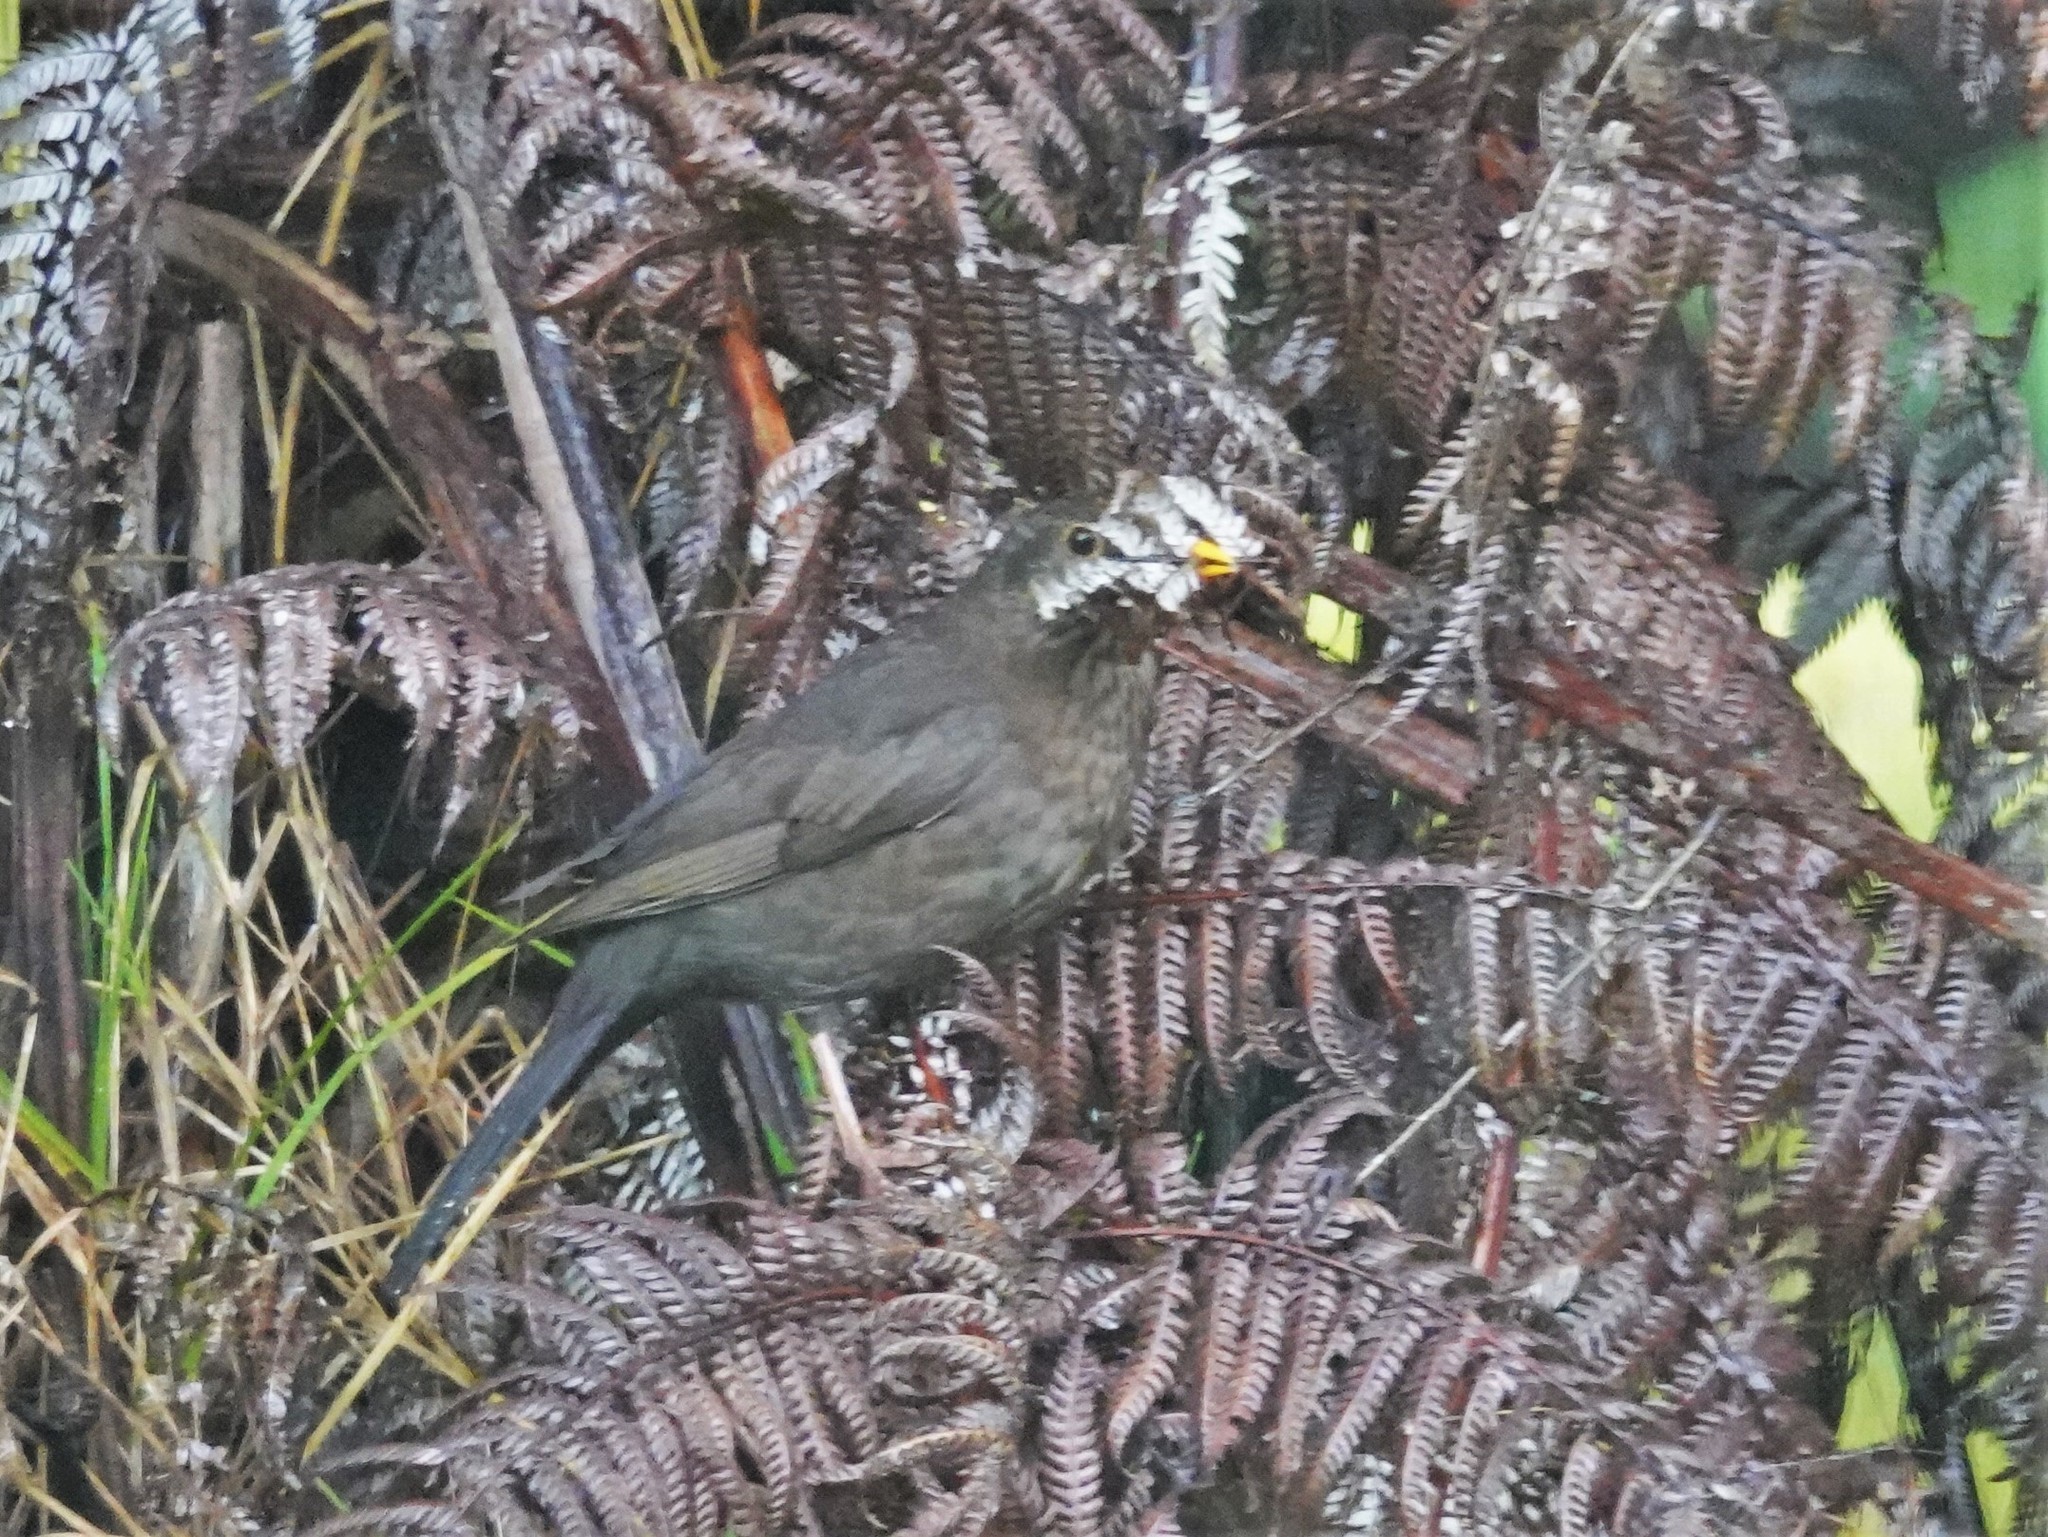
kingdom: Animalia
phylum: Chordata
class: Aves
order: Passeriformes
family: Turdidae
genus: Turdus
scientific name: Turdus merula
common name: Common blackbird
